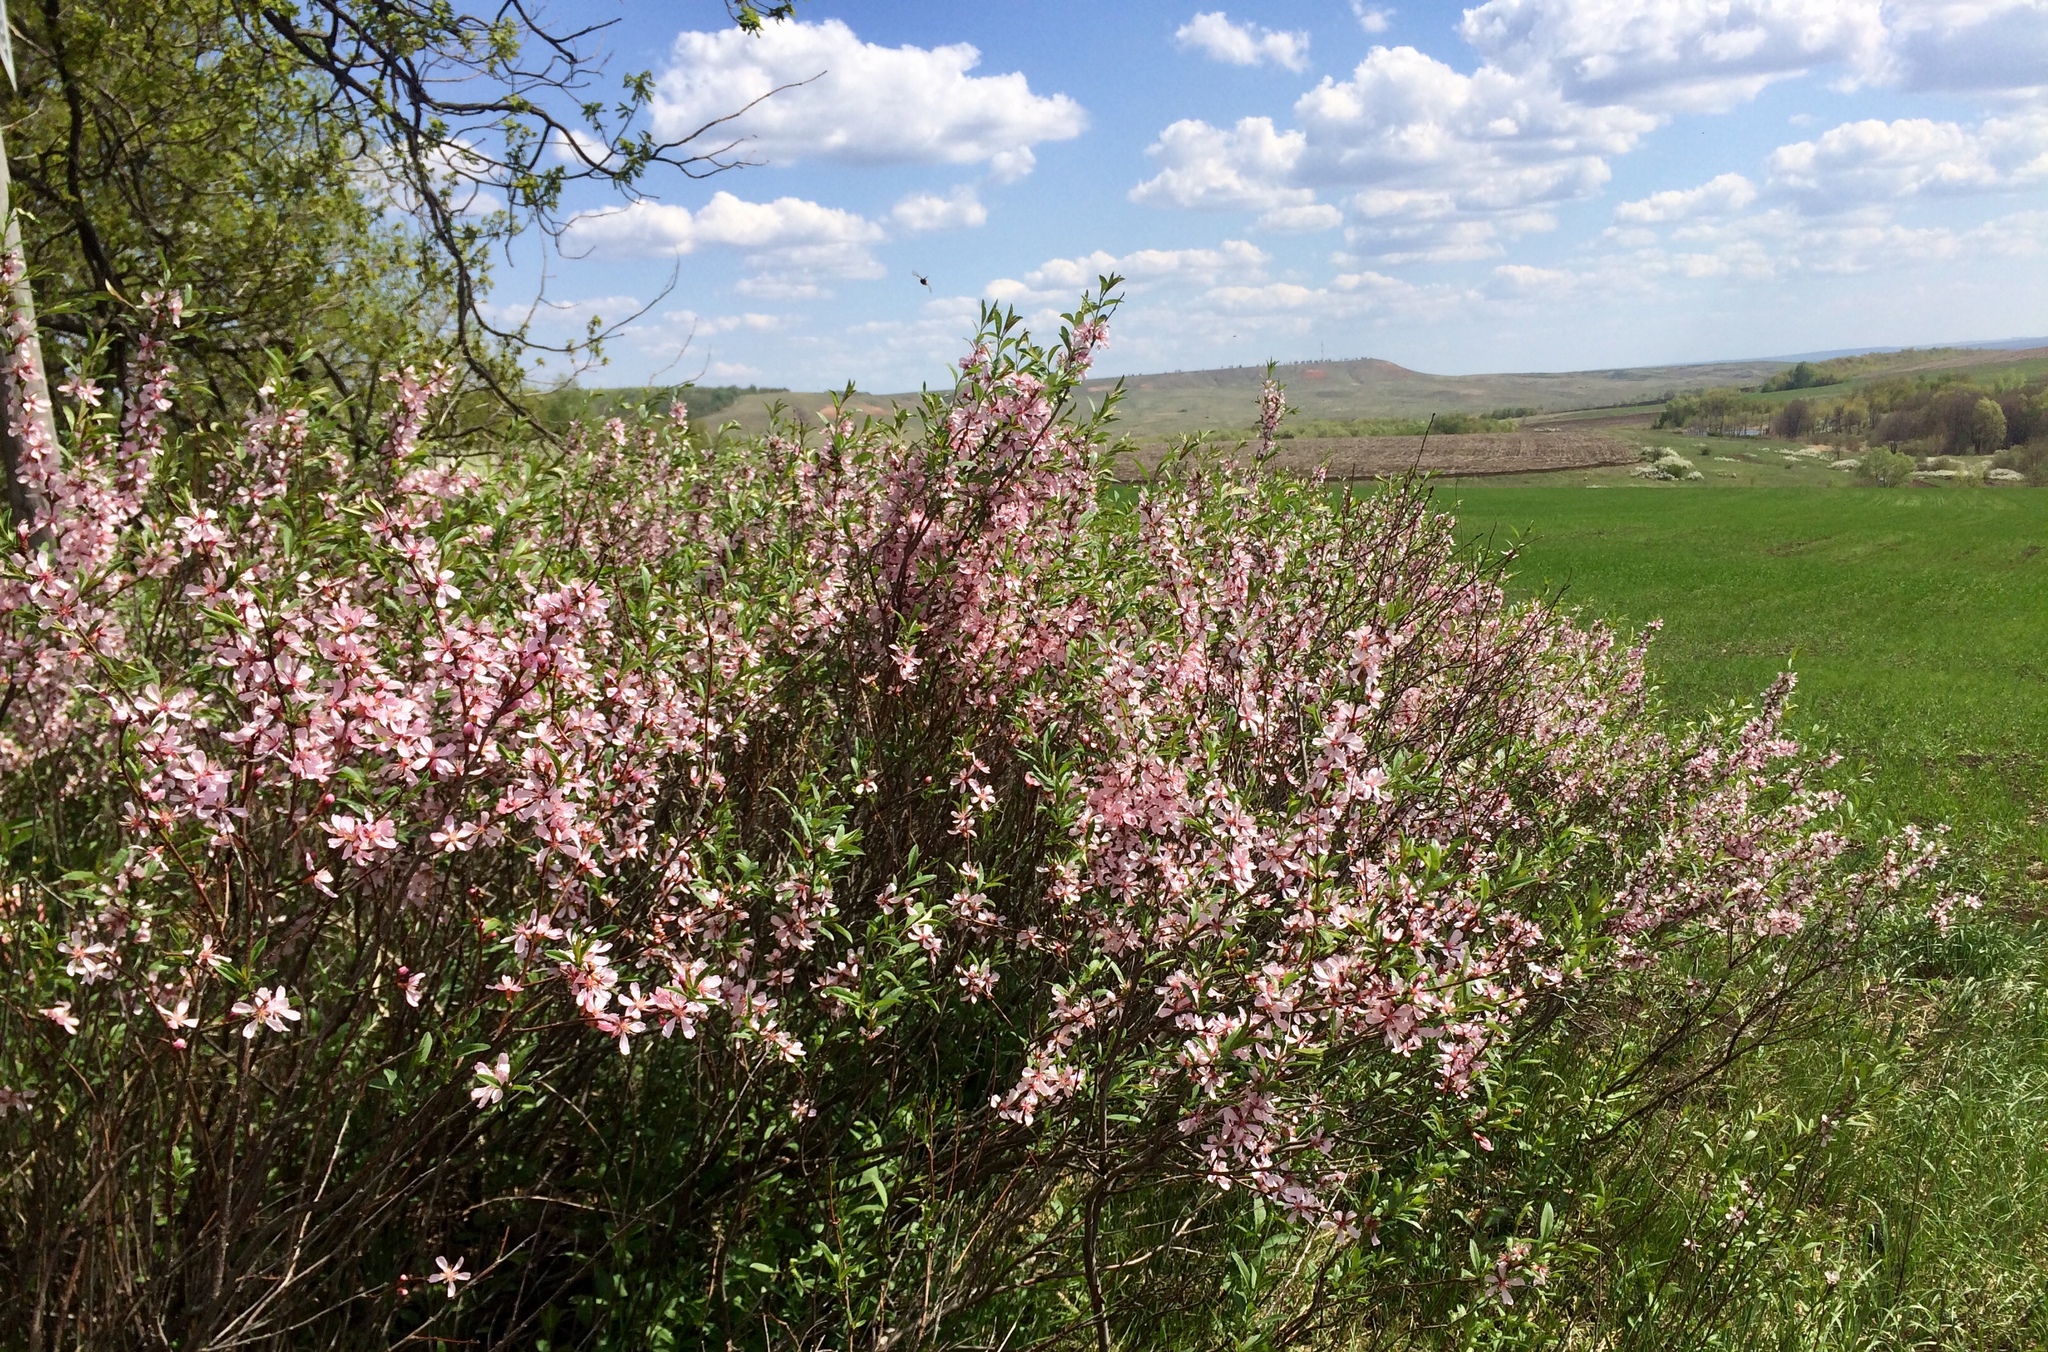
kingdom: Plantae
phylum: Tracheophyta
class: Magnoliopsida
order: Rosales
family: Rosaceae
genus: Prunus
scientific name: Prunus tenella
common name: Dwarf russian almond
